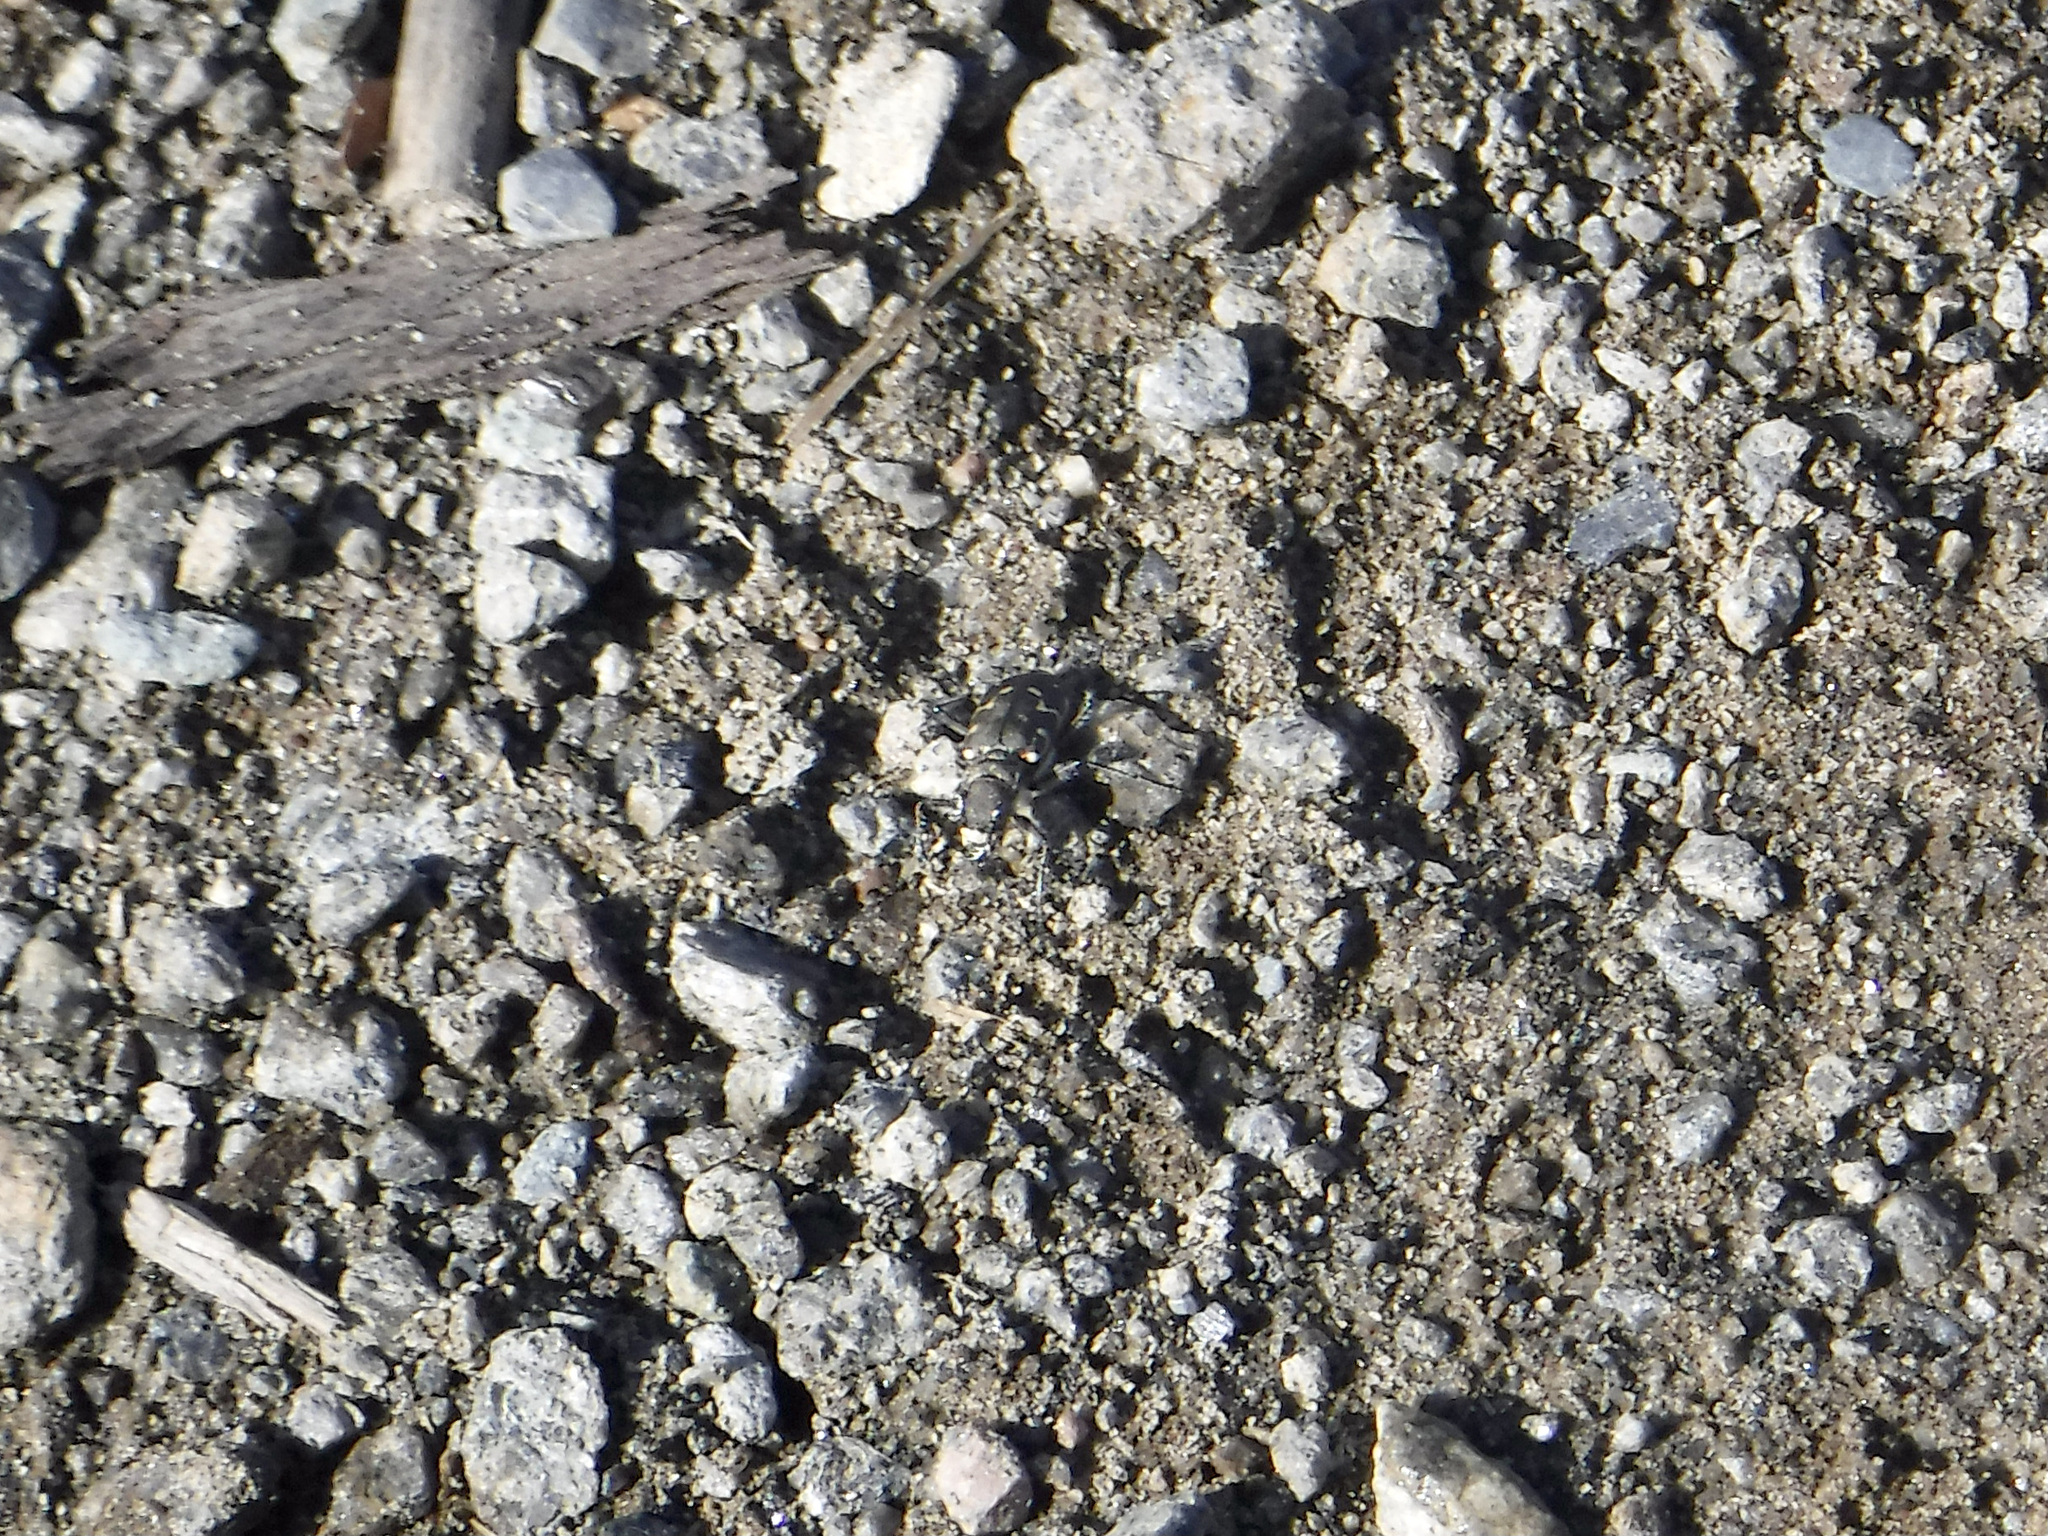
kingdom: Animalia
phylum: Arthropoda
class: Insecta
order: Coleoptera
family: Carabidae
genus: Cicindela
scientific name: Cicindela duodecimguttata
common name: Twelve-spotted tiger beetle
